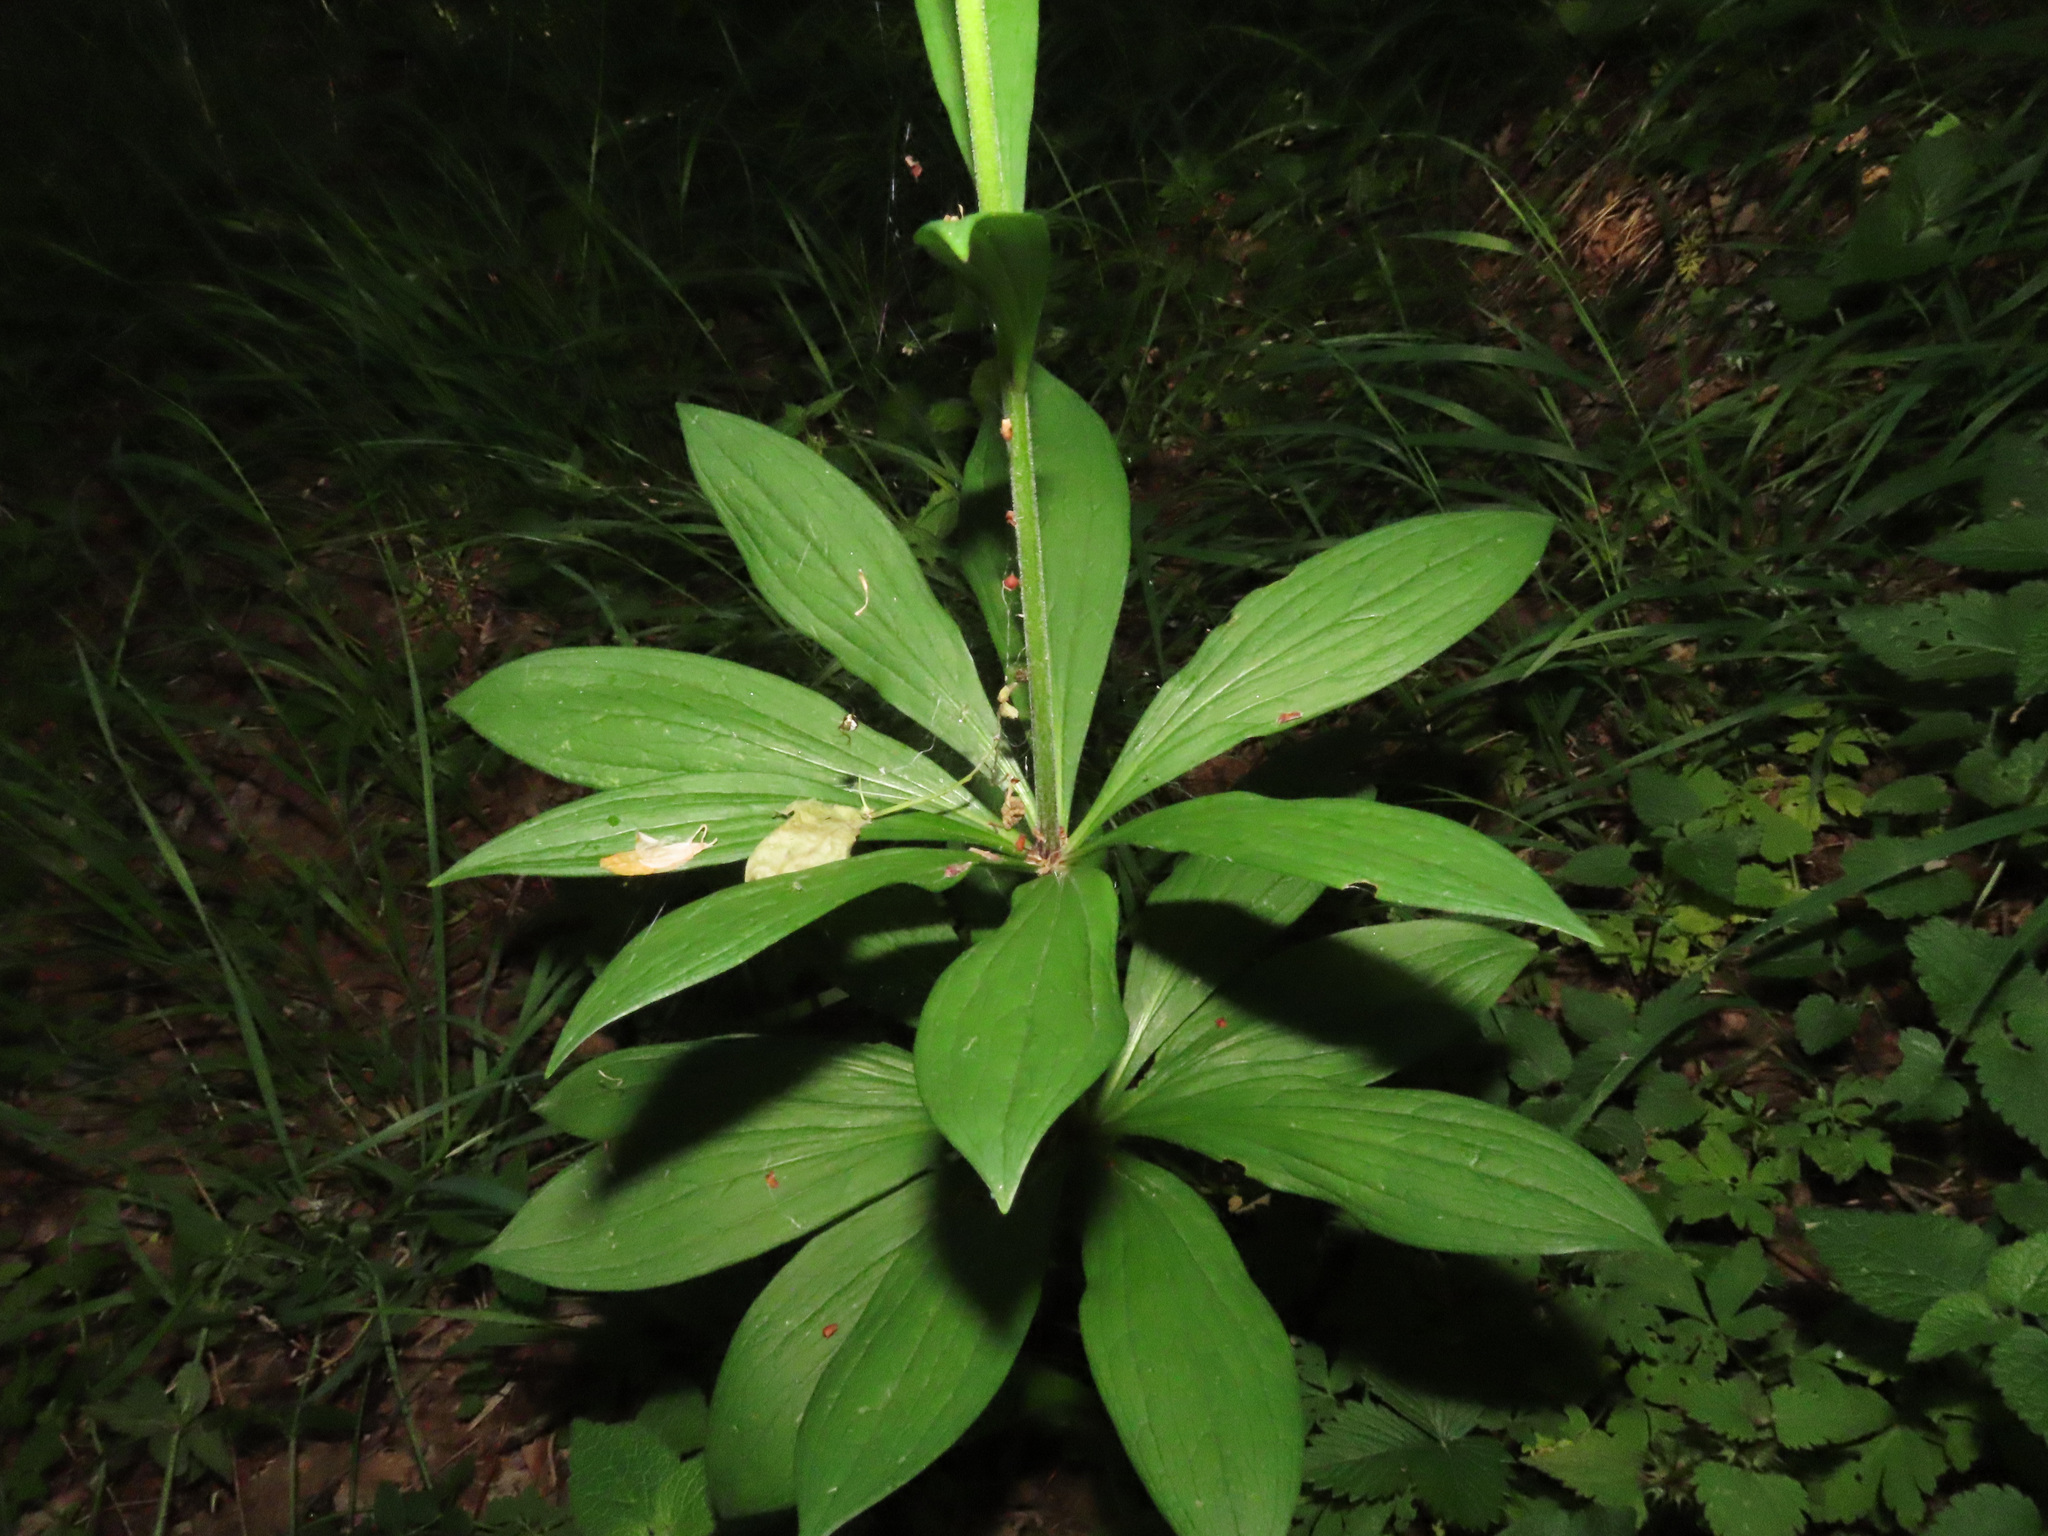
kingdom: Plantae
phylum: Tracheophyta
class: Liliopsida
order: Liliales
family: Liliaceae
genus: Lilium
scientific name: Lilium martagon
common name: Martagon lily
